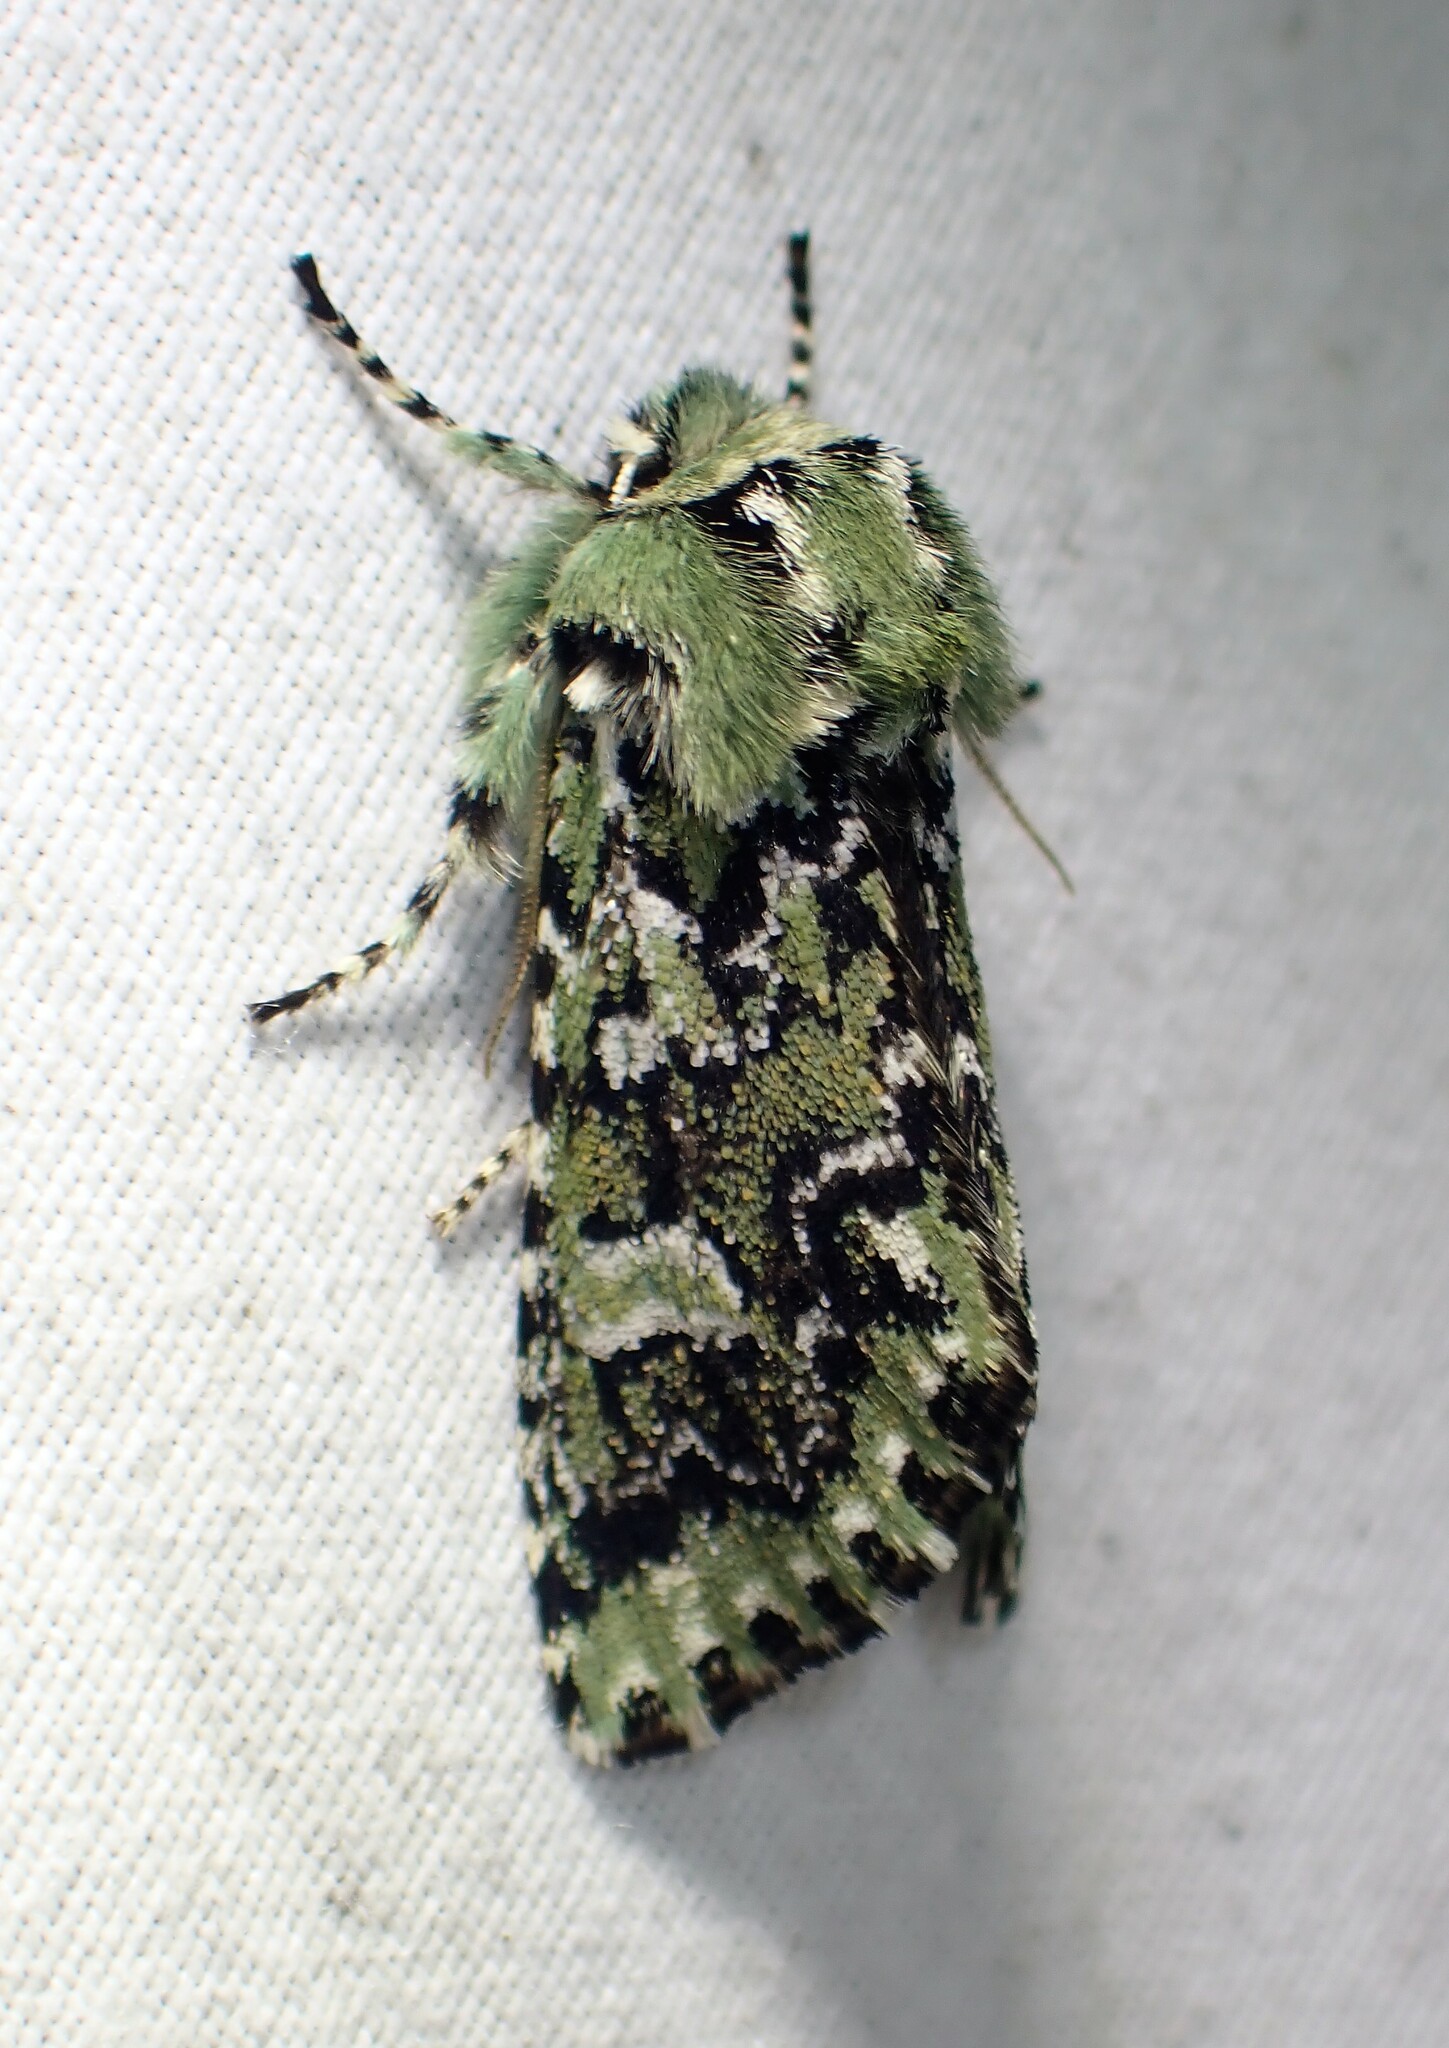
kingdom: Animalia
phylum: Arthropoda
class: Insecta
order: Lepidoptera
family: Noctuidae
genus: Feralia
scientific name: Feralia jocosa
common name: Joker
